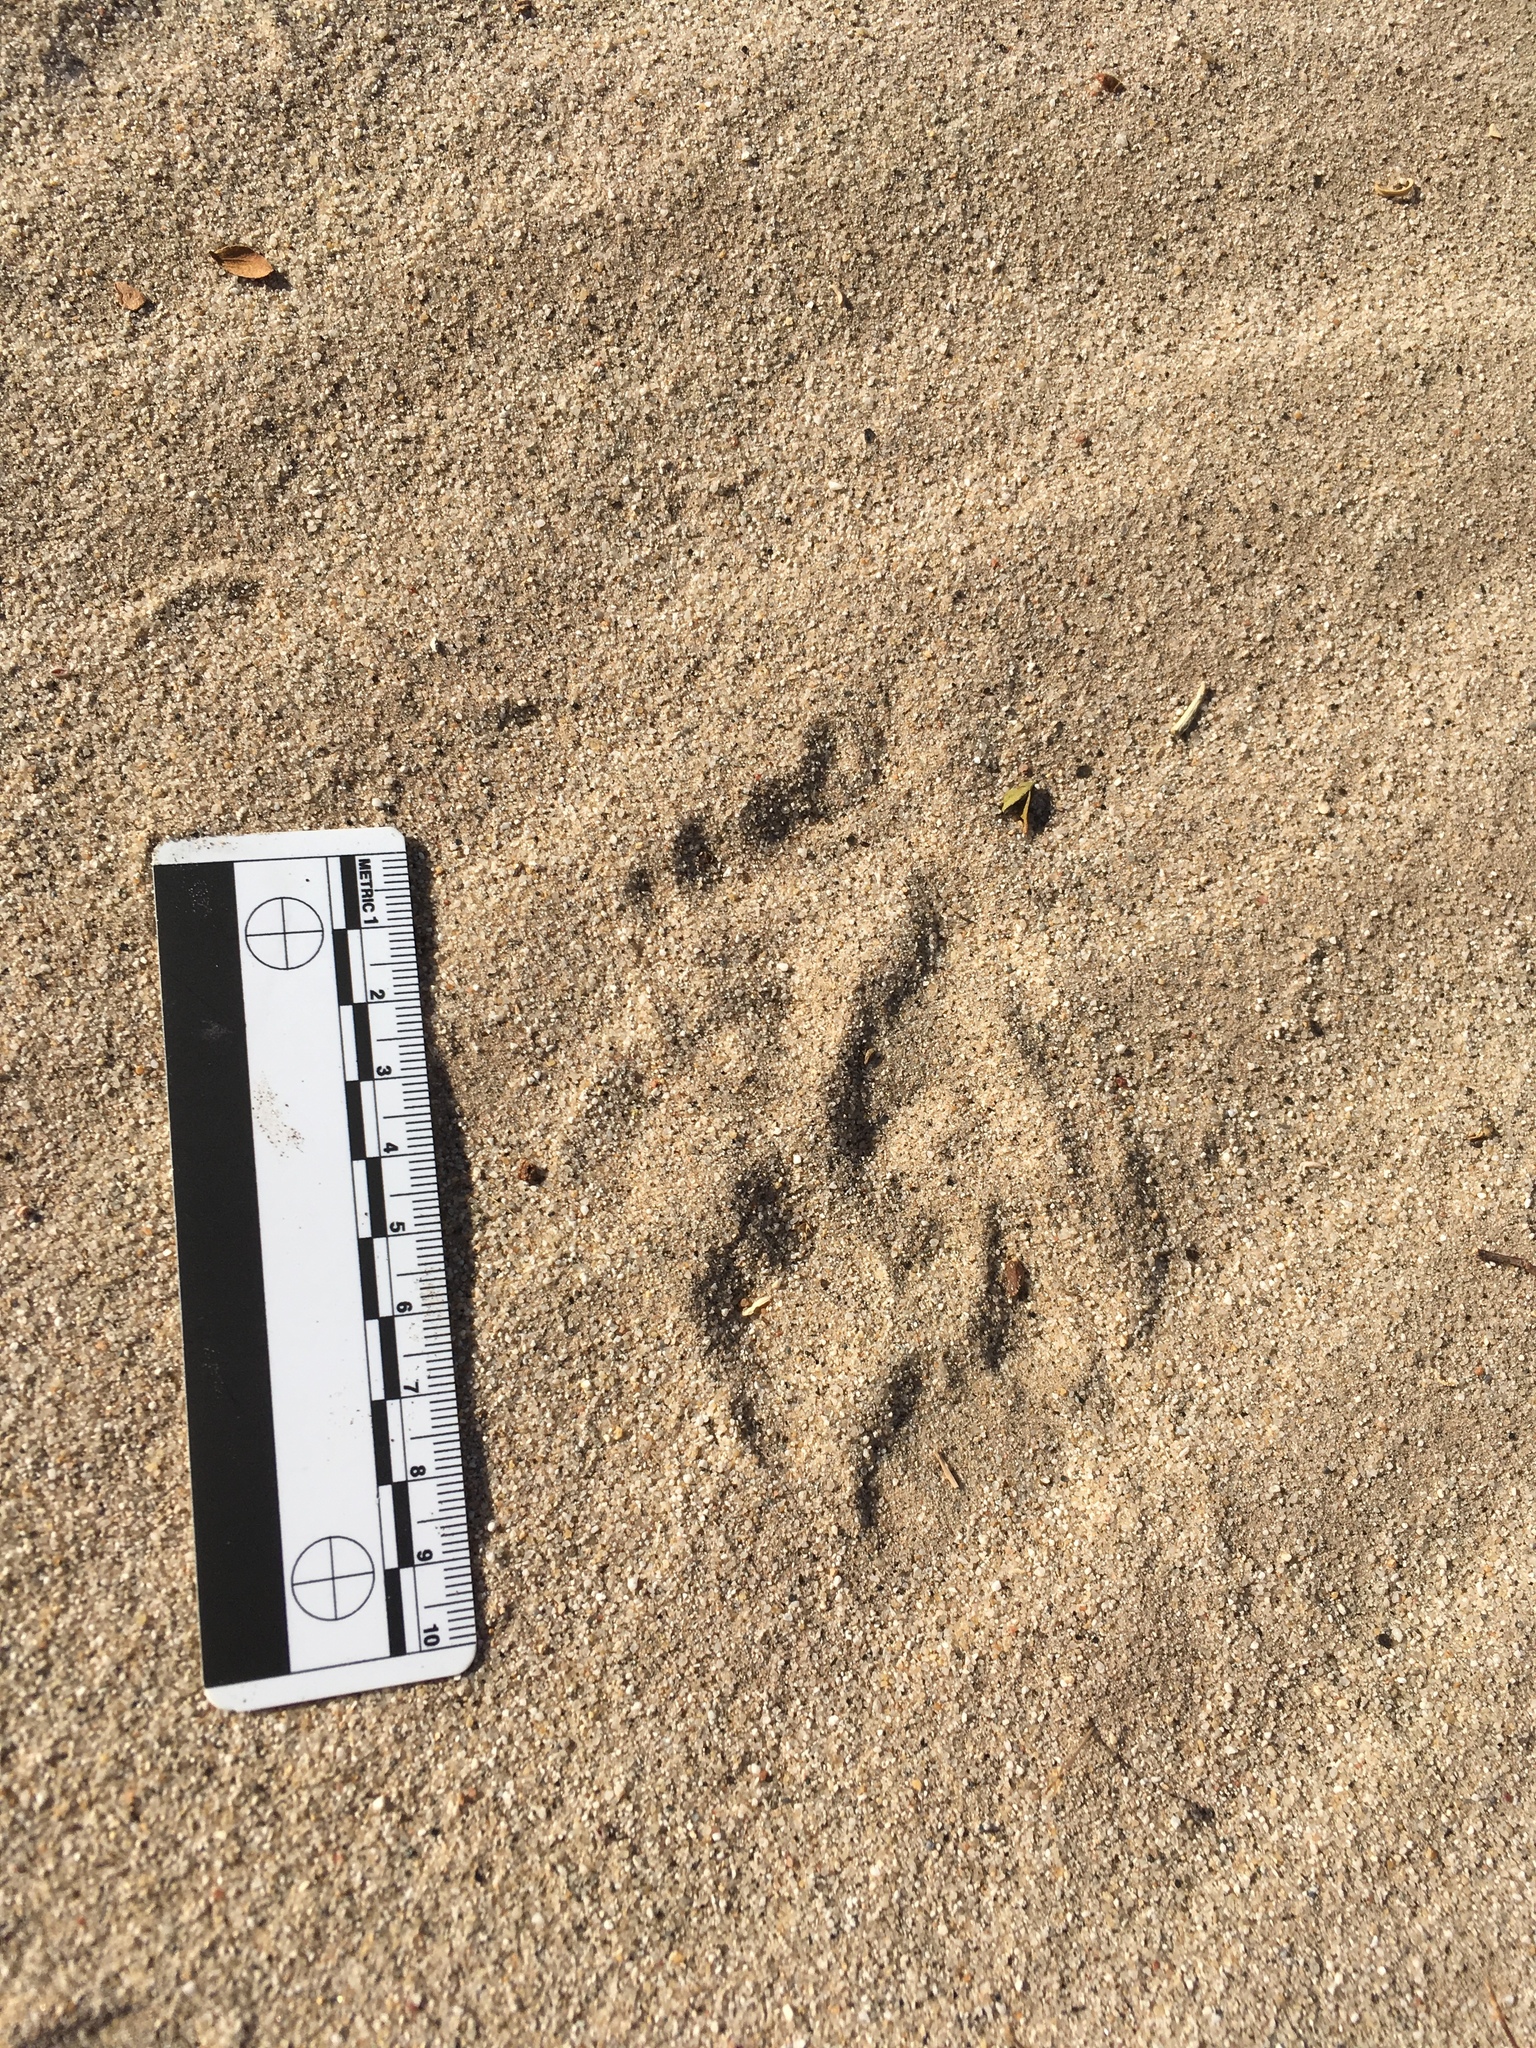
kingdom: Animalia
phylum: Chordata
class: Mammalia
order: Carnivora
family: Mustelidae
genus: Taxidea
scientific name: Taxidea taxus
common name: American badger
